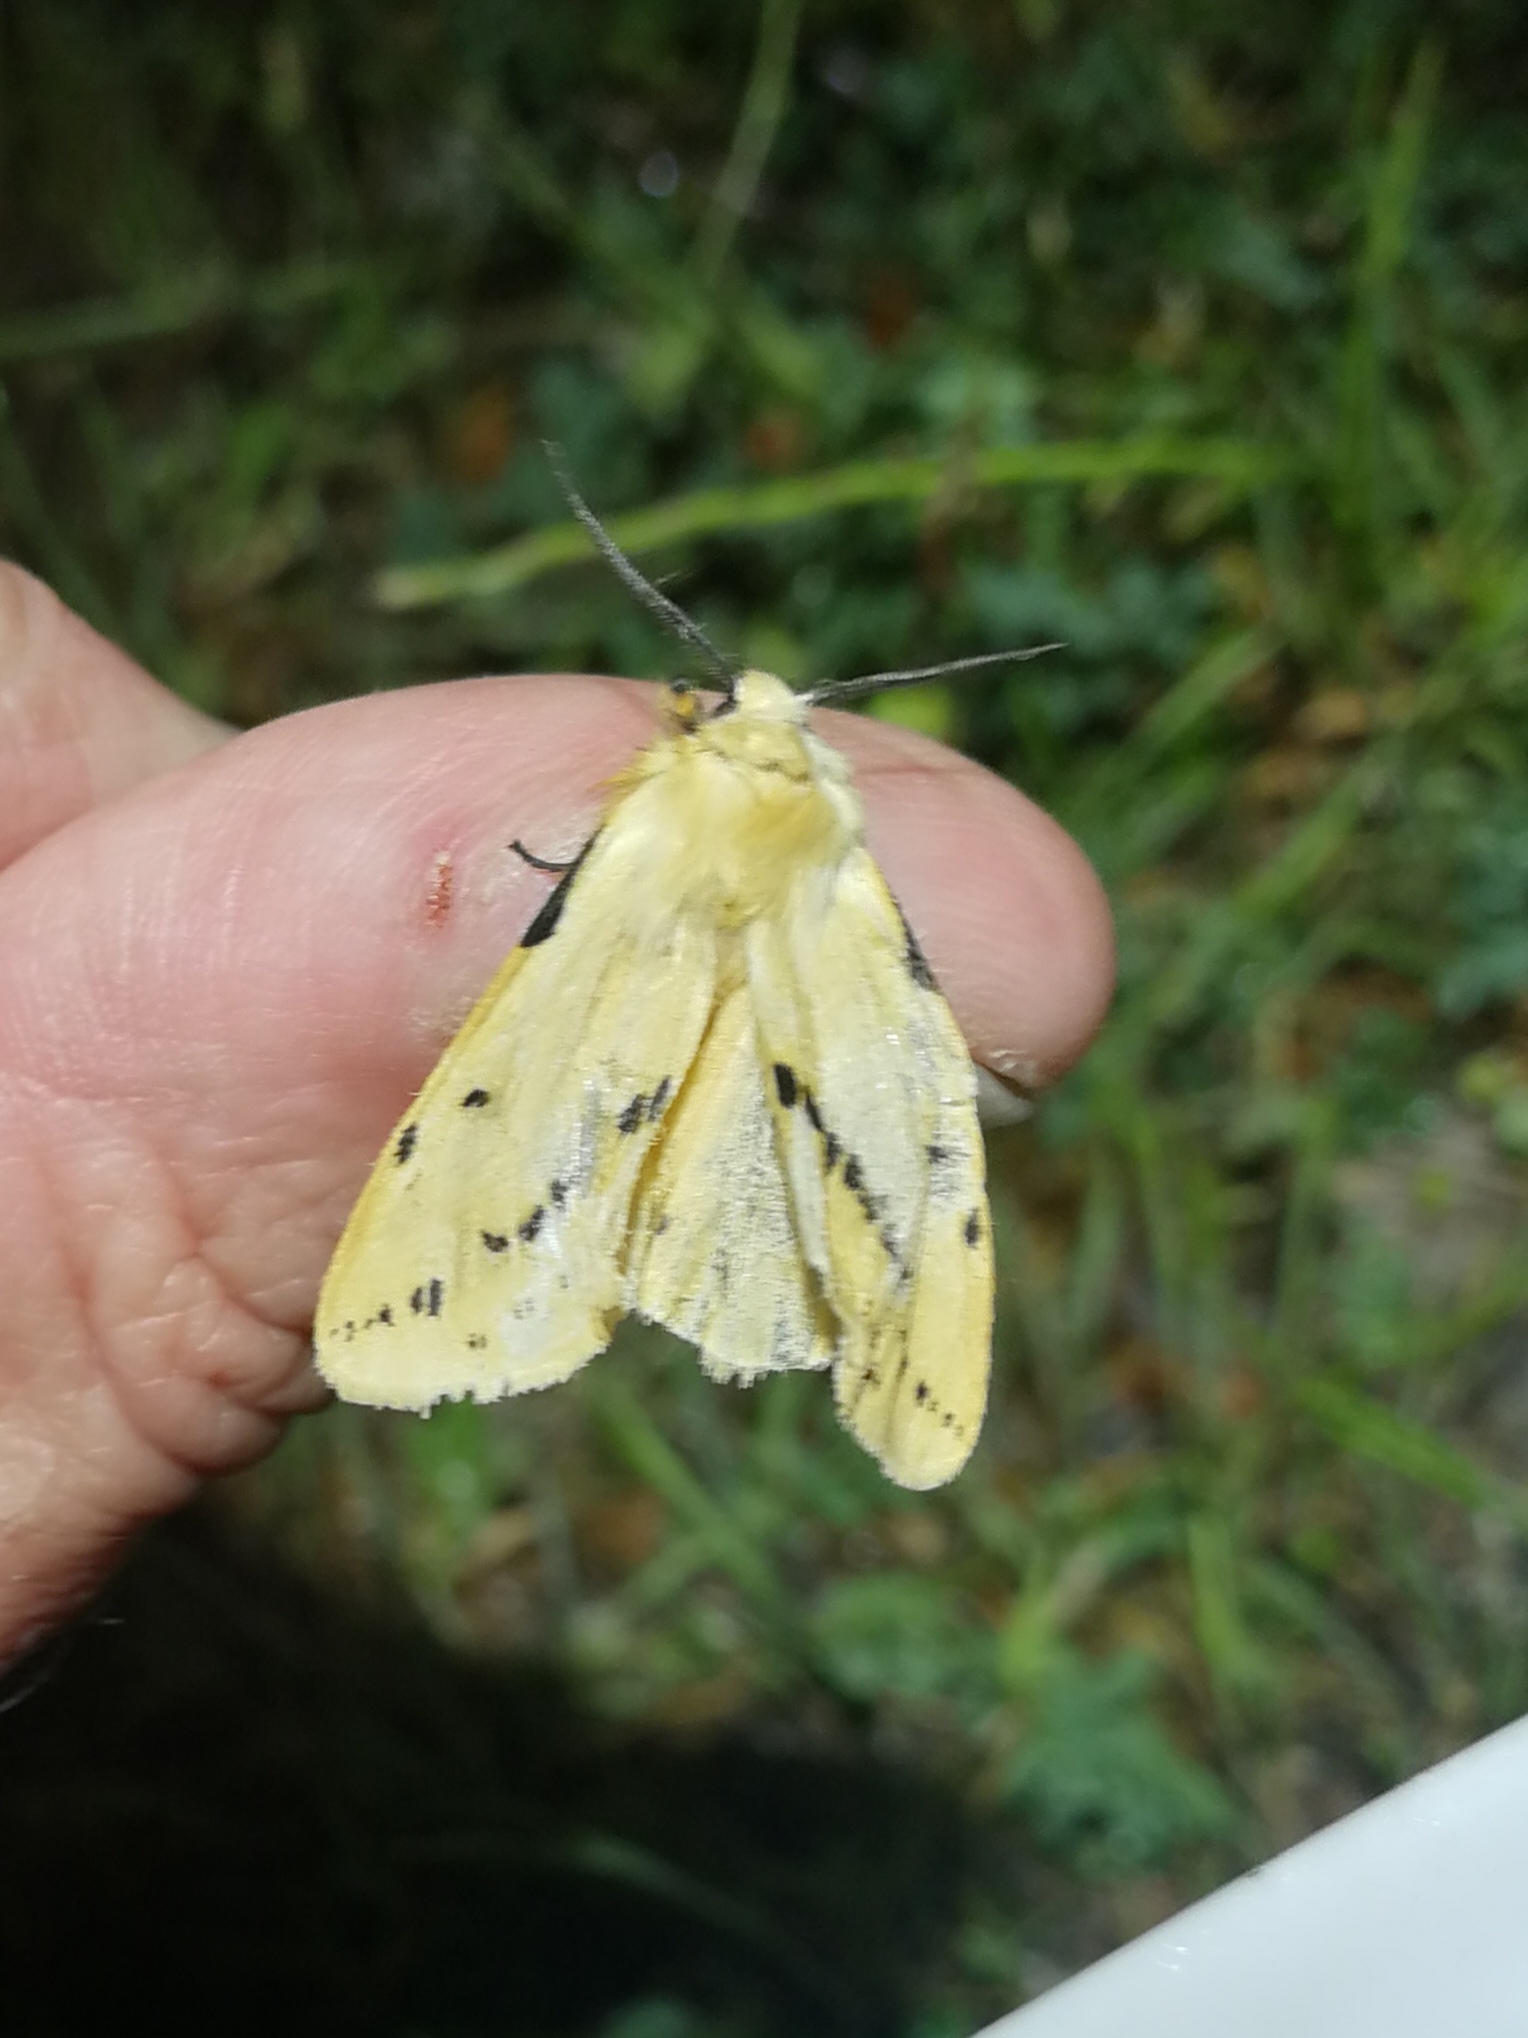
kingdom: Animalia
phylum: Arthropoda
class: Insecta
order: Lepidoptera
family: Erebidae
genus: Spilarctia
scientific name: Spilarctia lutea
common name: Buff ermine
